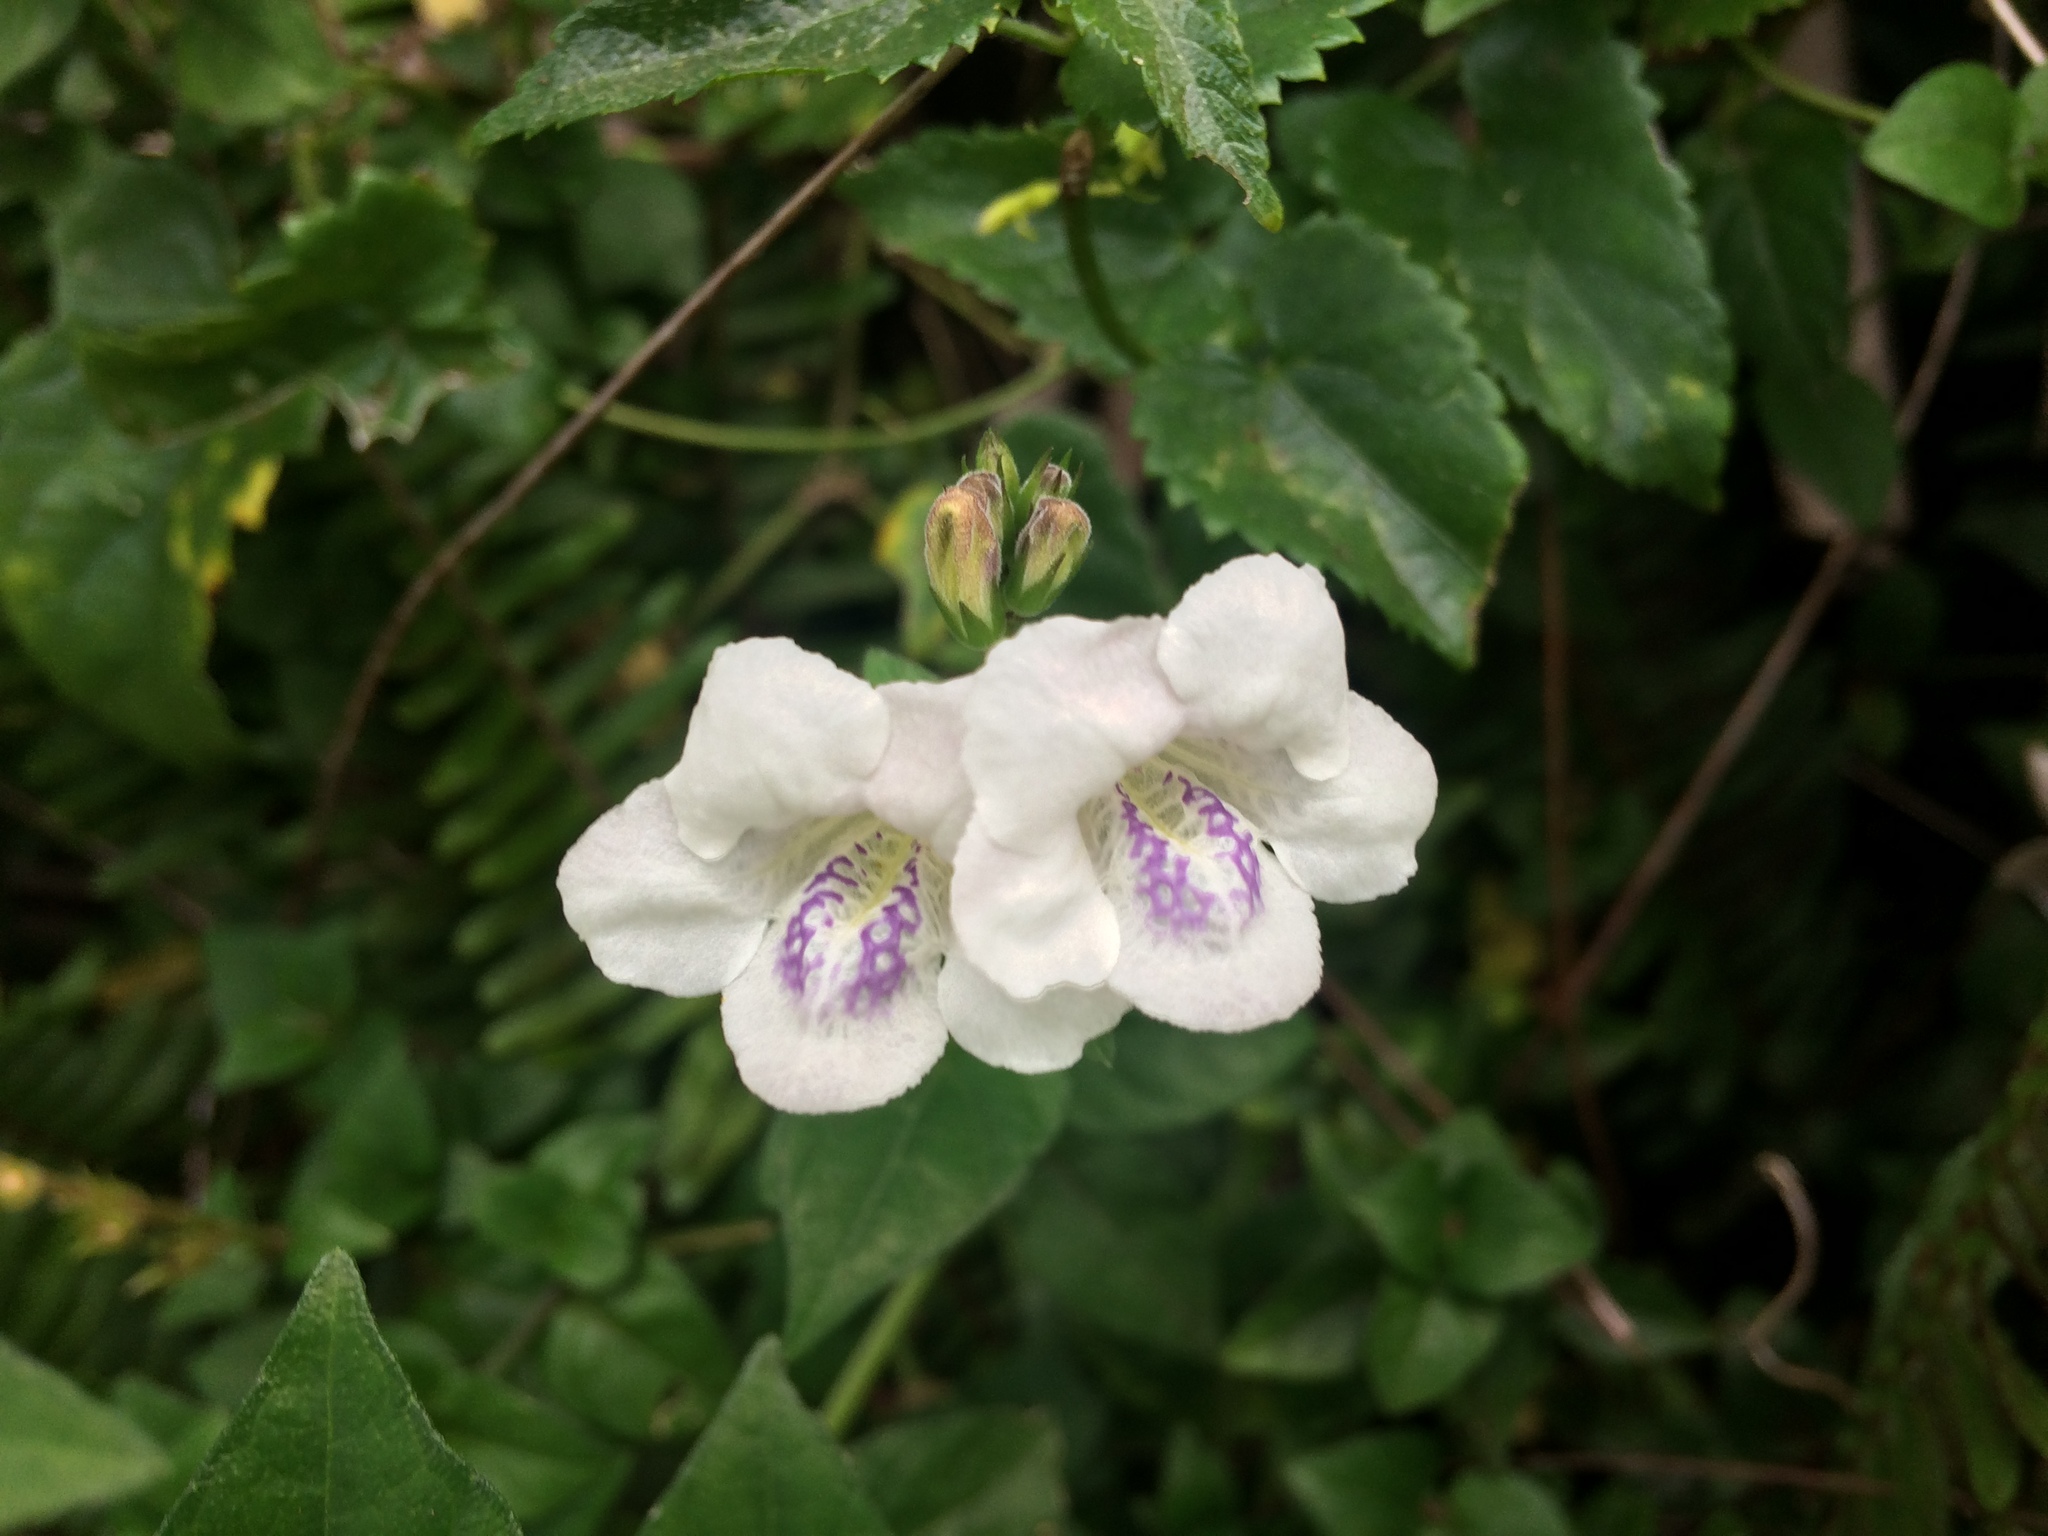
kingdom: Plantae
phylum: Tracheophyta
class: Magnoliopsida
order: Lamiales
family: Acanthaceae
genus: Asystasia
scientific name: Asystasia intrusa
